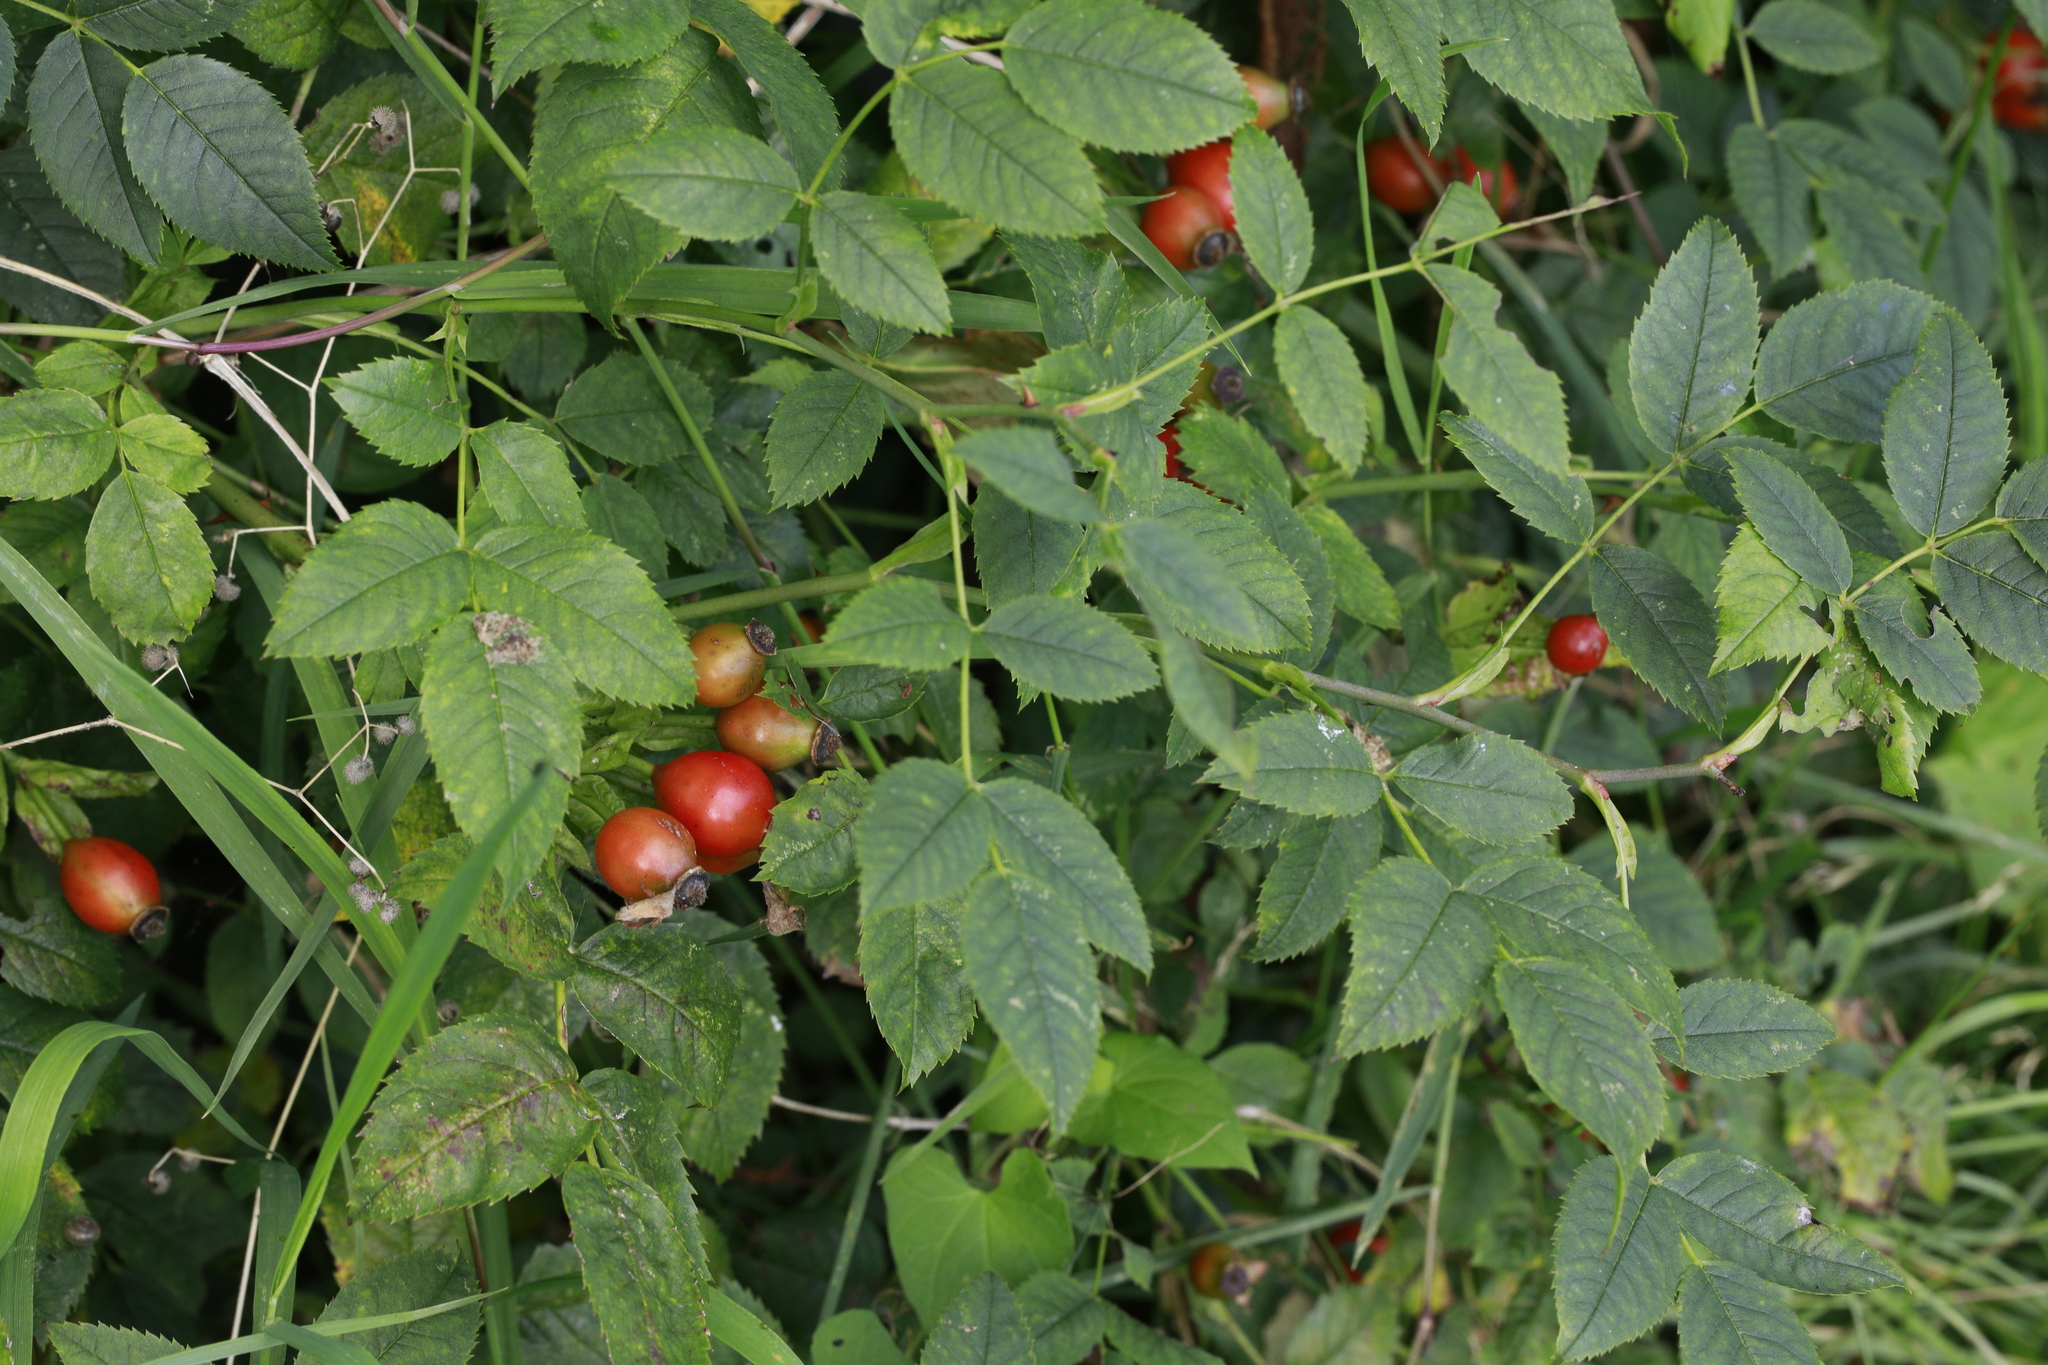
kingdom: Plantae
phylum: Tracheophyta
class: Magnoliopsida
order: Rosales
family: Rosaceae
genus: Rosa
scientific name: Rosa canina
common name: Dog rose
